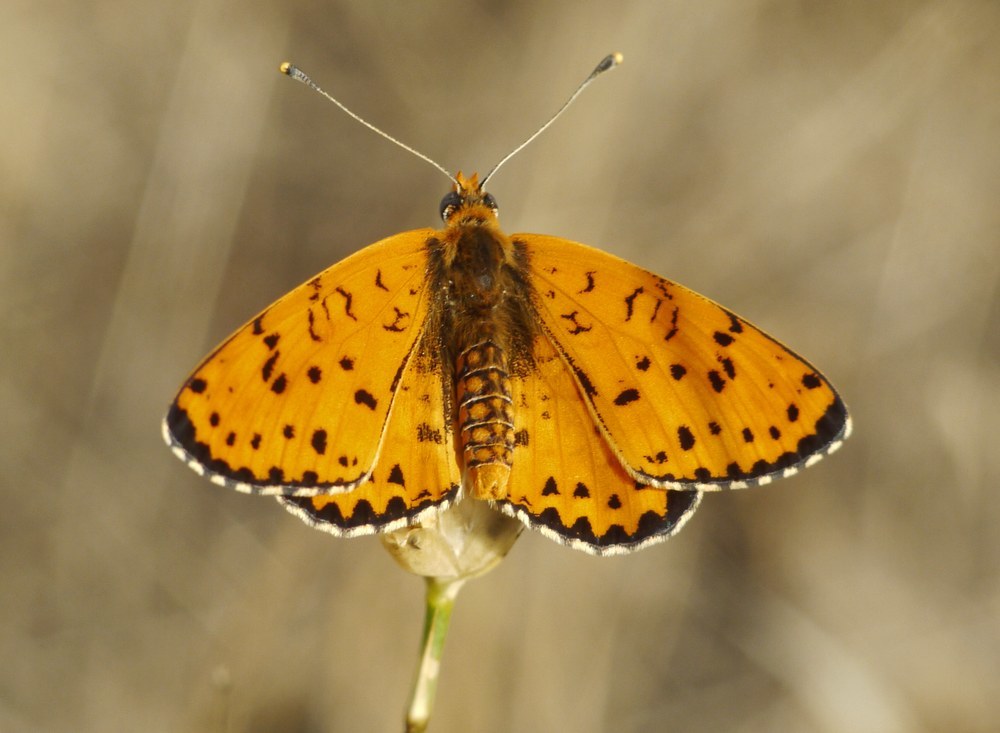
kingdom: Animalia
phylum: Arthropoda
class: Insecta
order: Lepidoptera
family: Nymphalidae
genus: Melitaea
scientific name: Melitaea didyma
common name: Spotted fritillary
